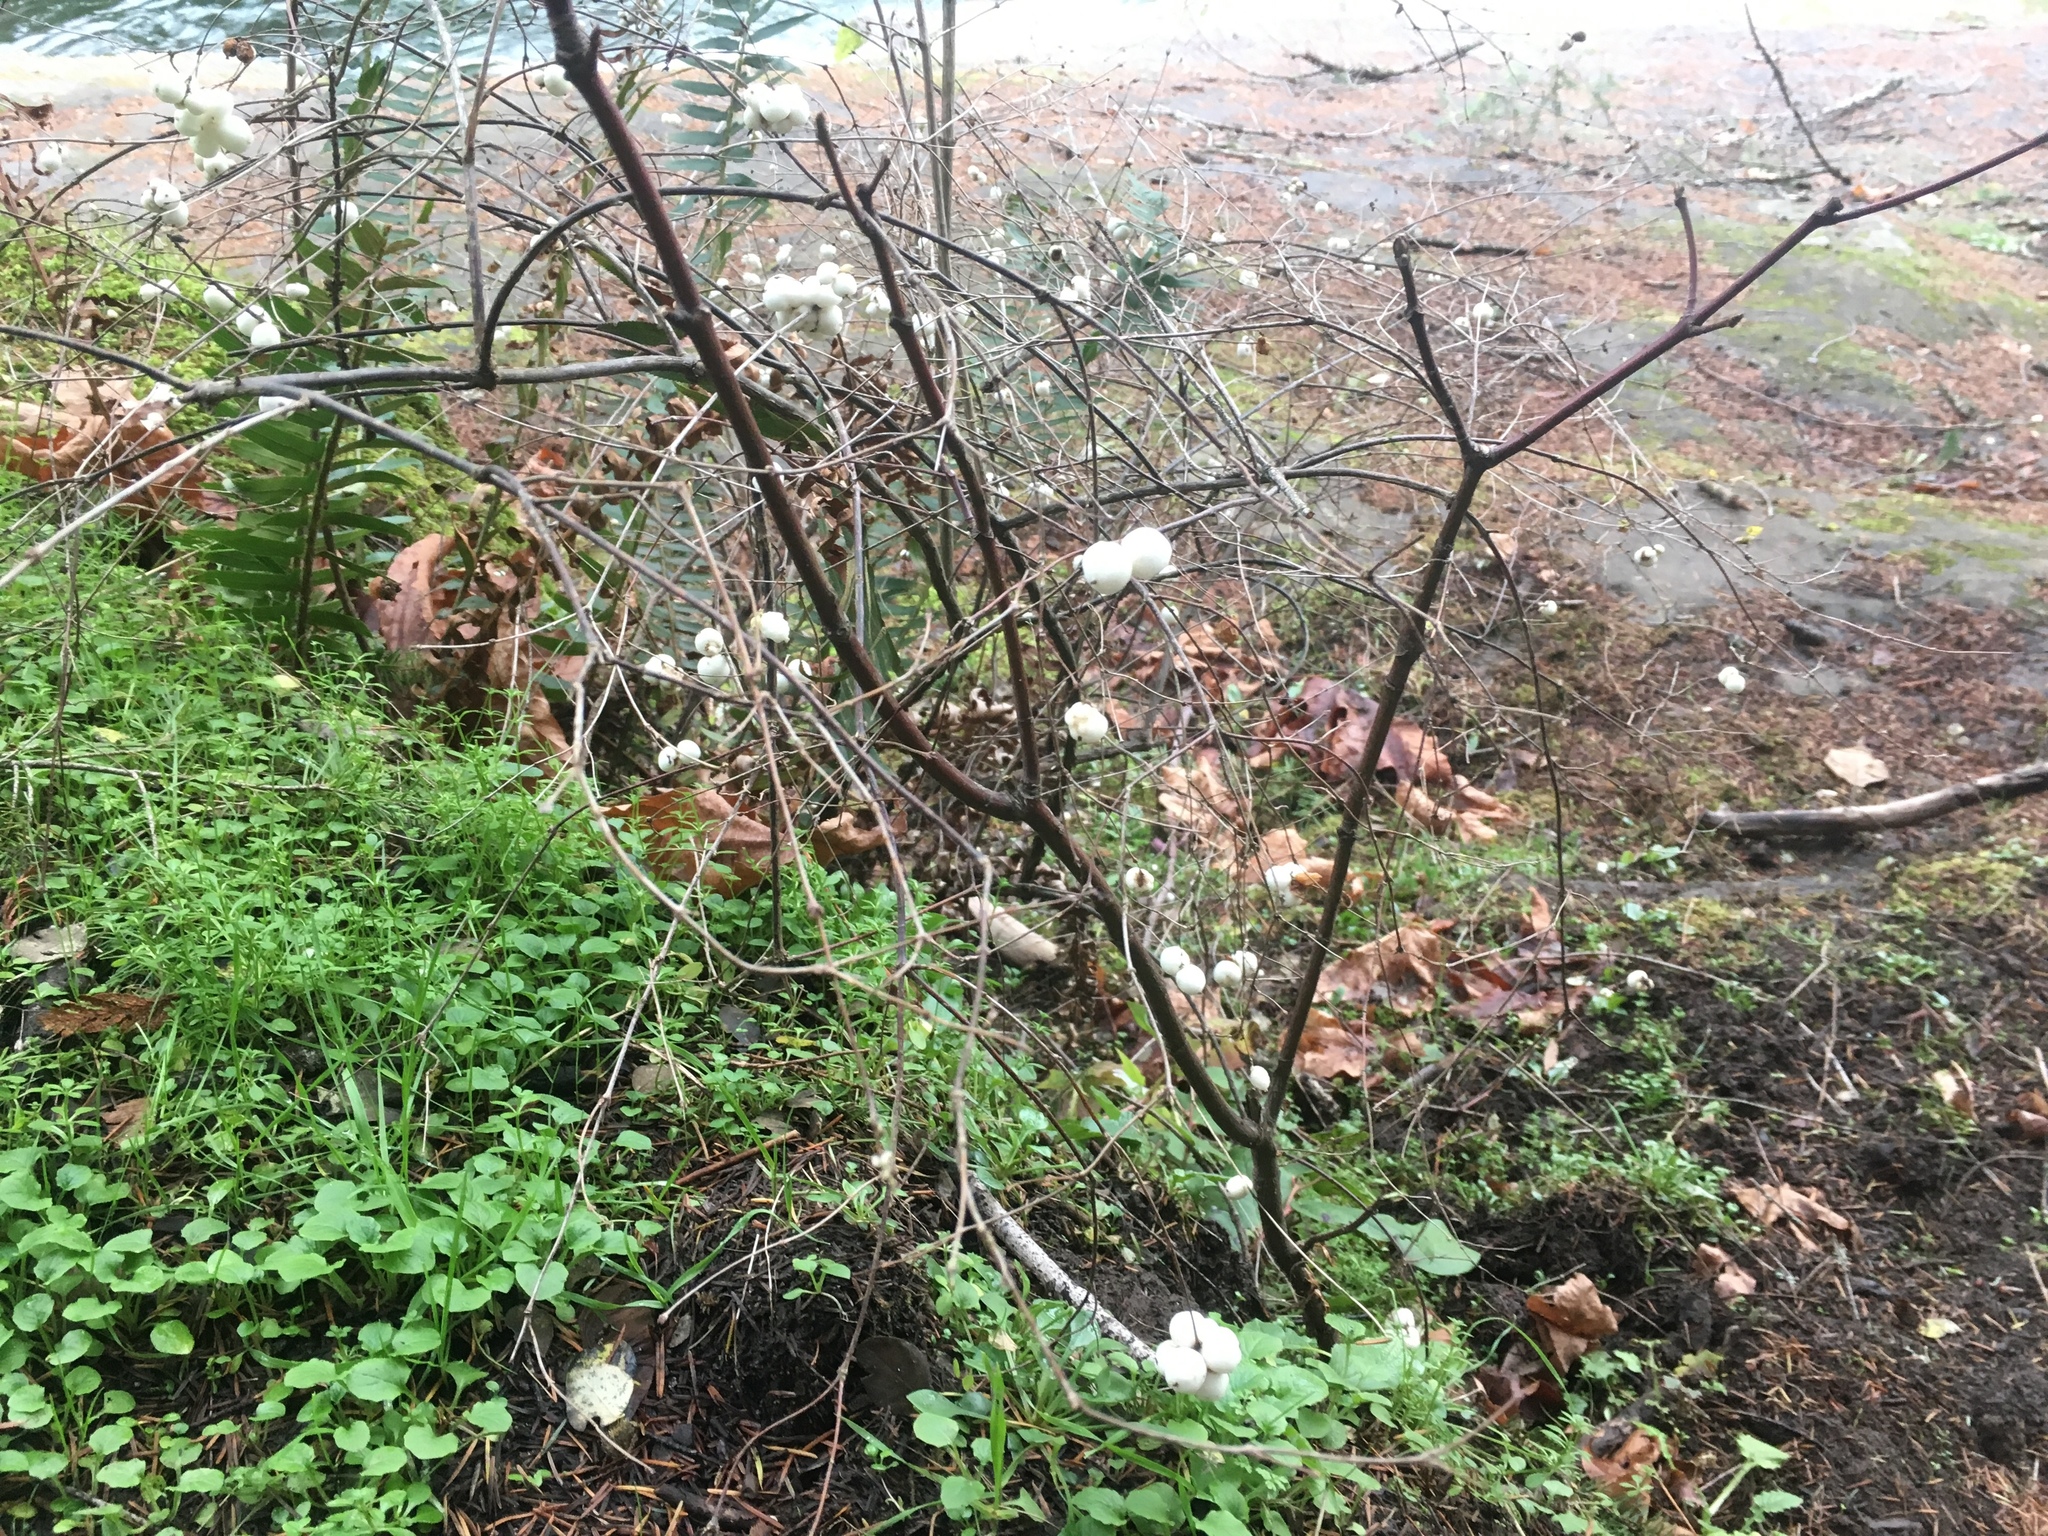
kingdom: Plantae
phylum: Tracheophyta
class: Magnoliopsida
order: Dipsacales
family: Caprifoliaceae
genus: Symphoricarpos
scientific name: Symphoricarpos albus
